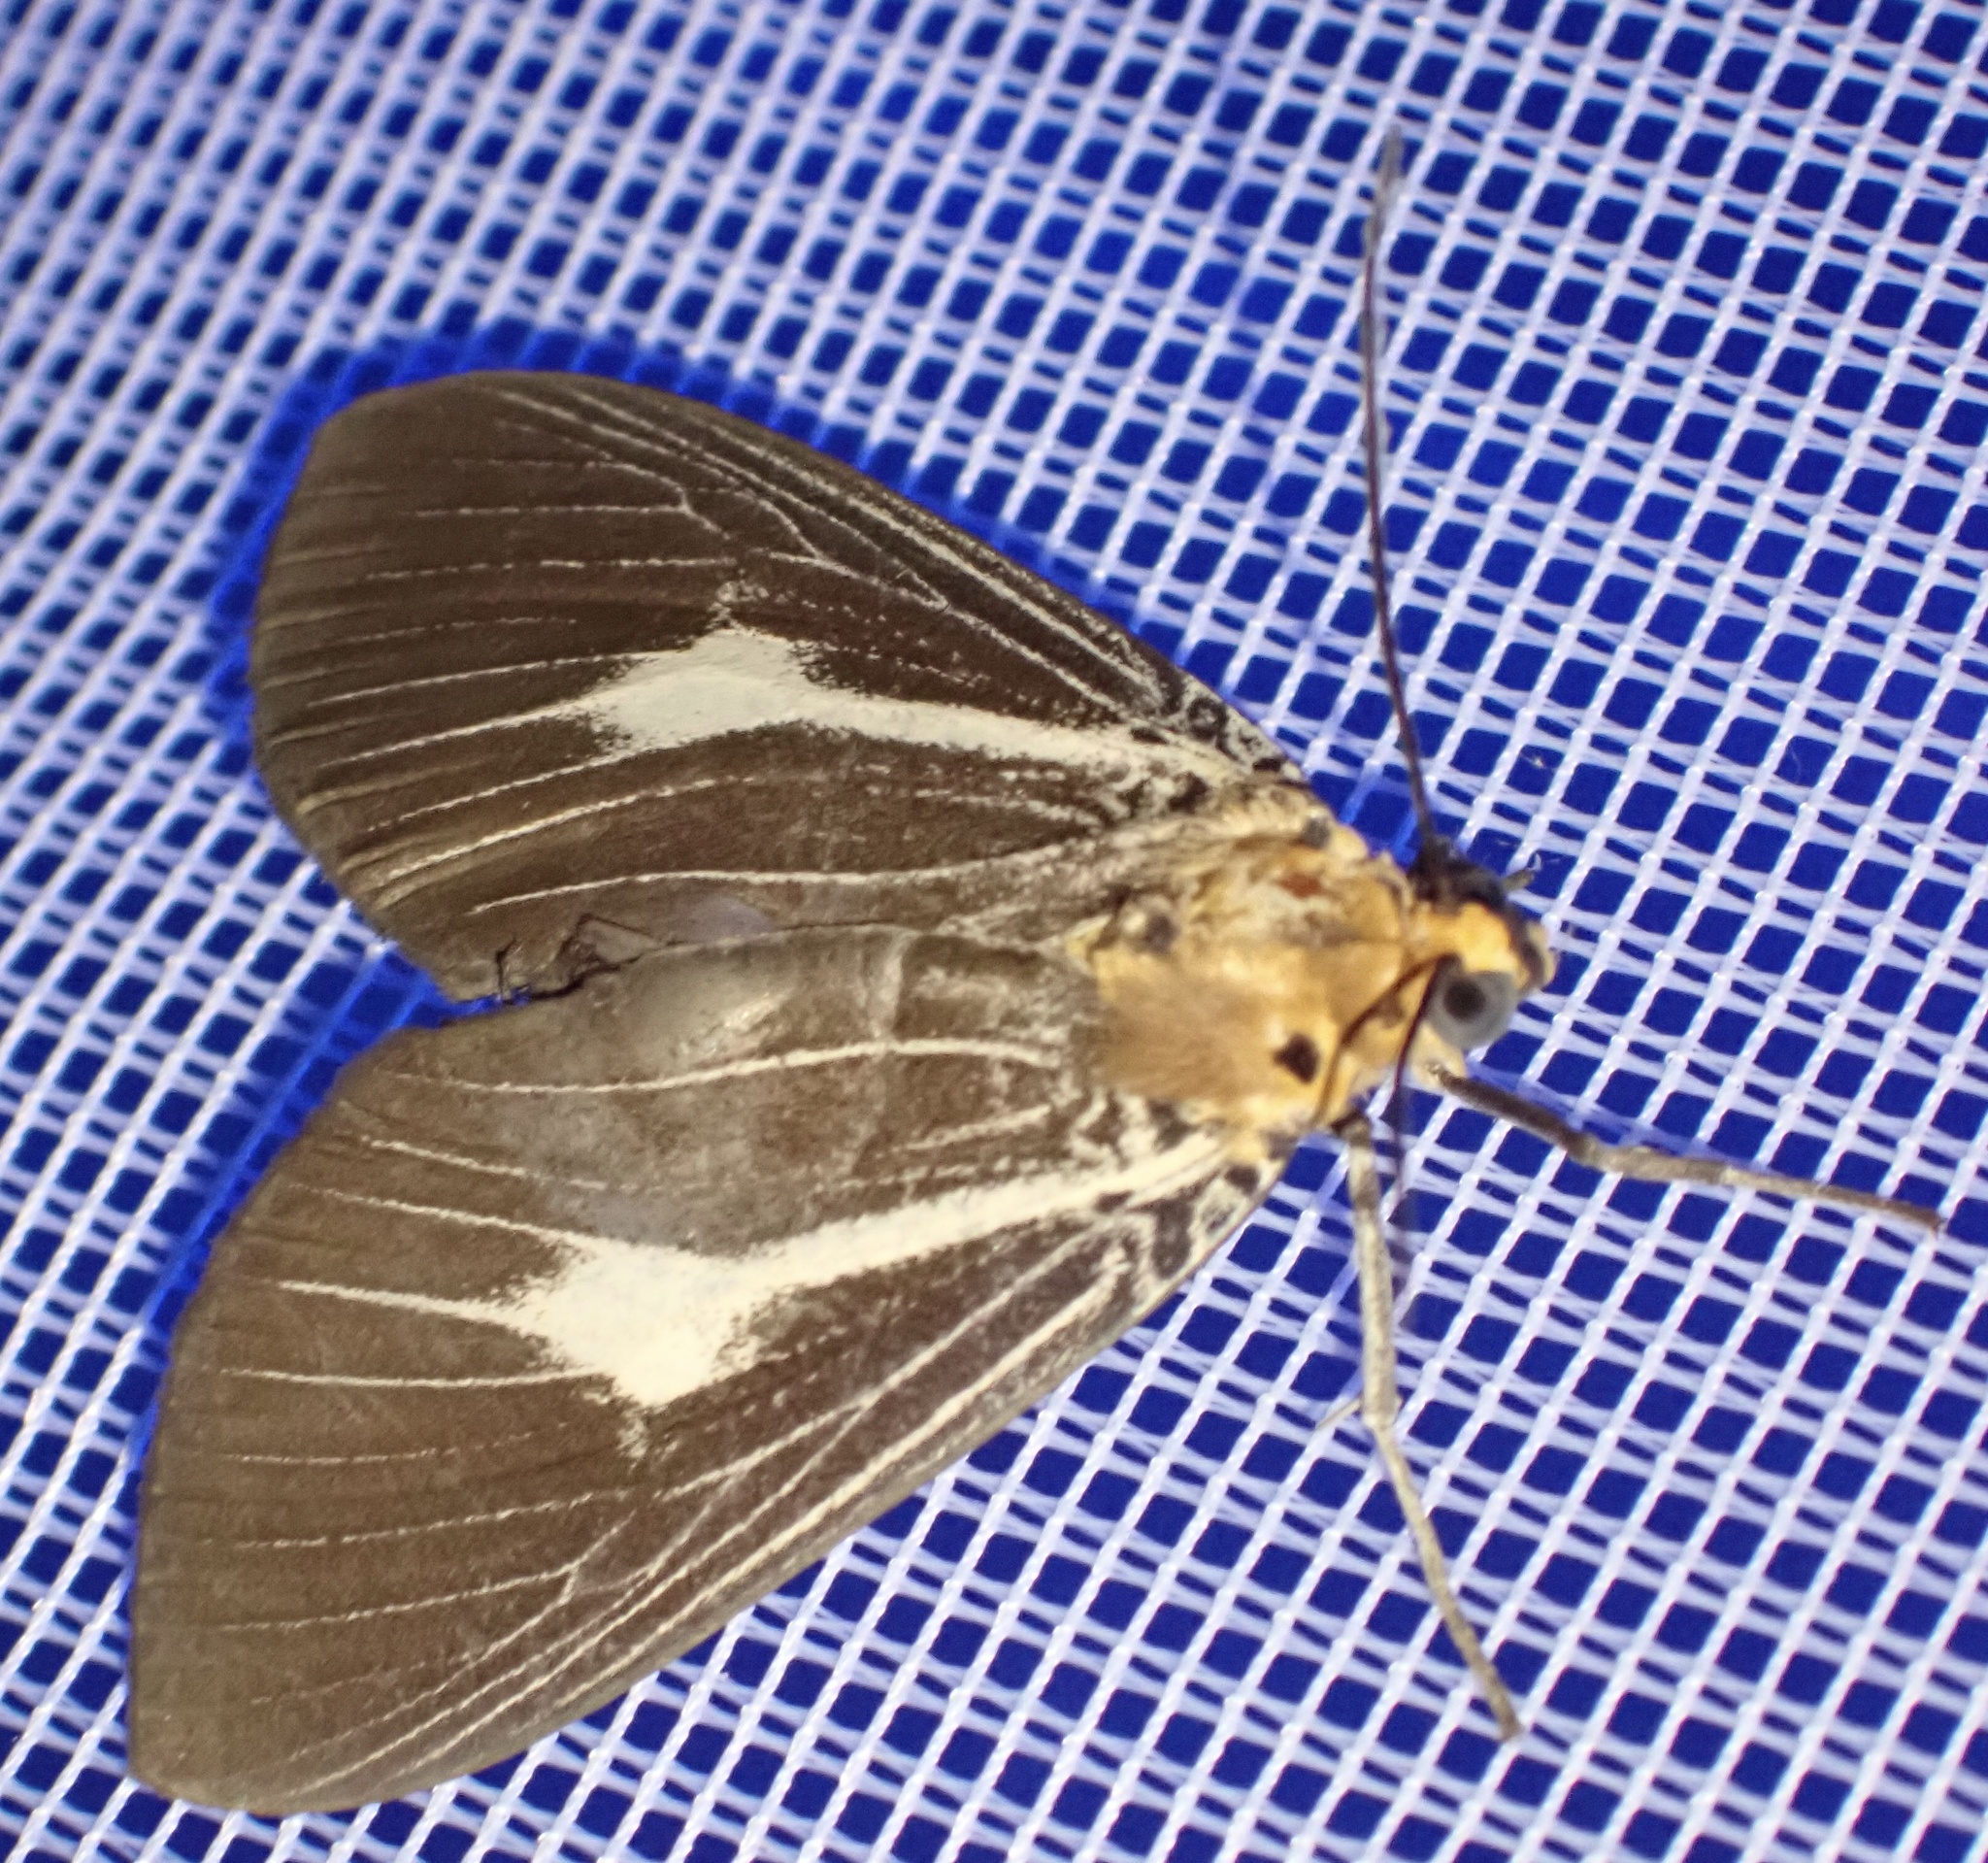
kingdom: Animalia
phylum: Arthropoda
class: Insecta
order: Lepidoptera
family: Erebidae
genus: Asota
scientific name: Asota heliconia
